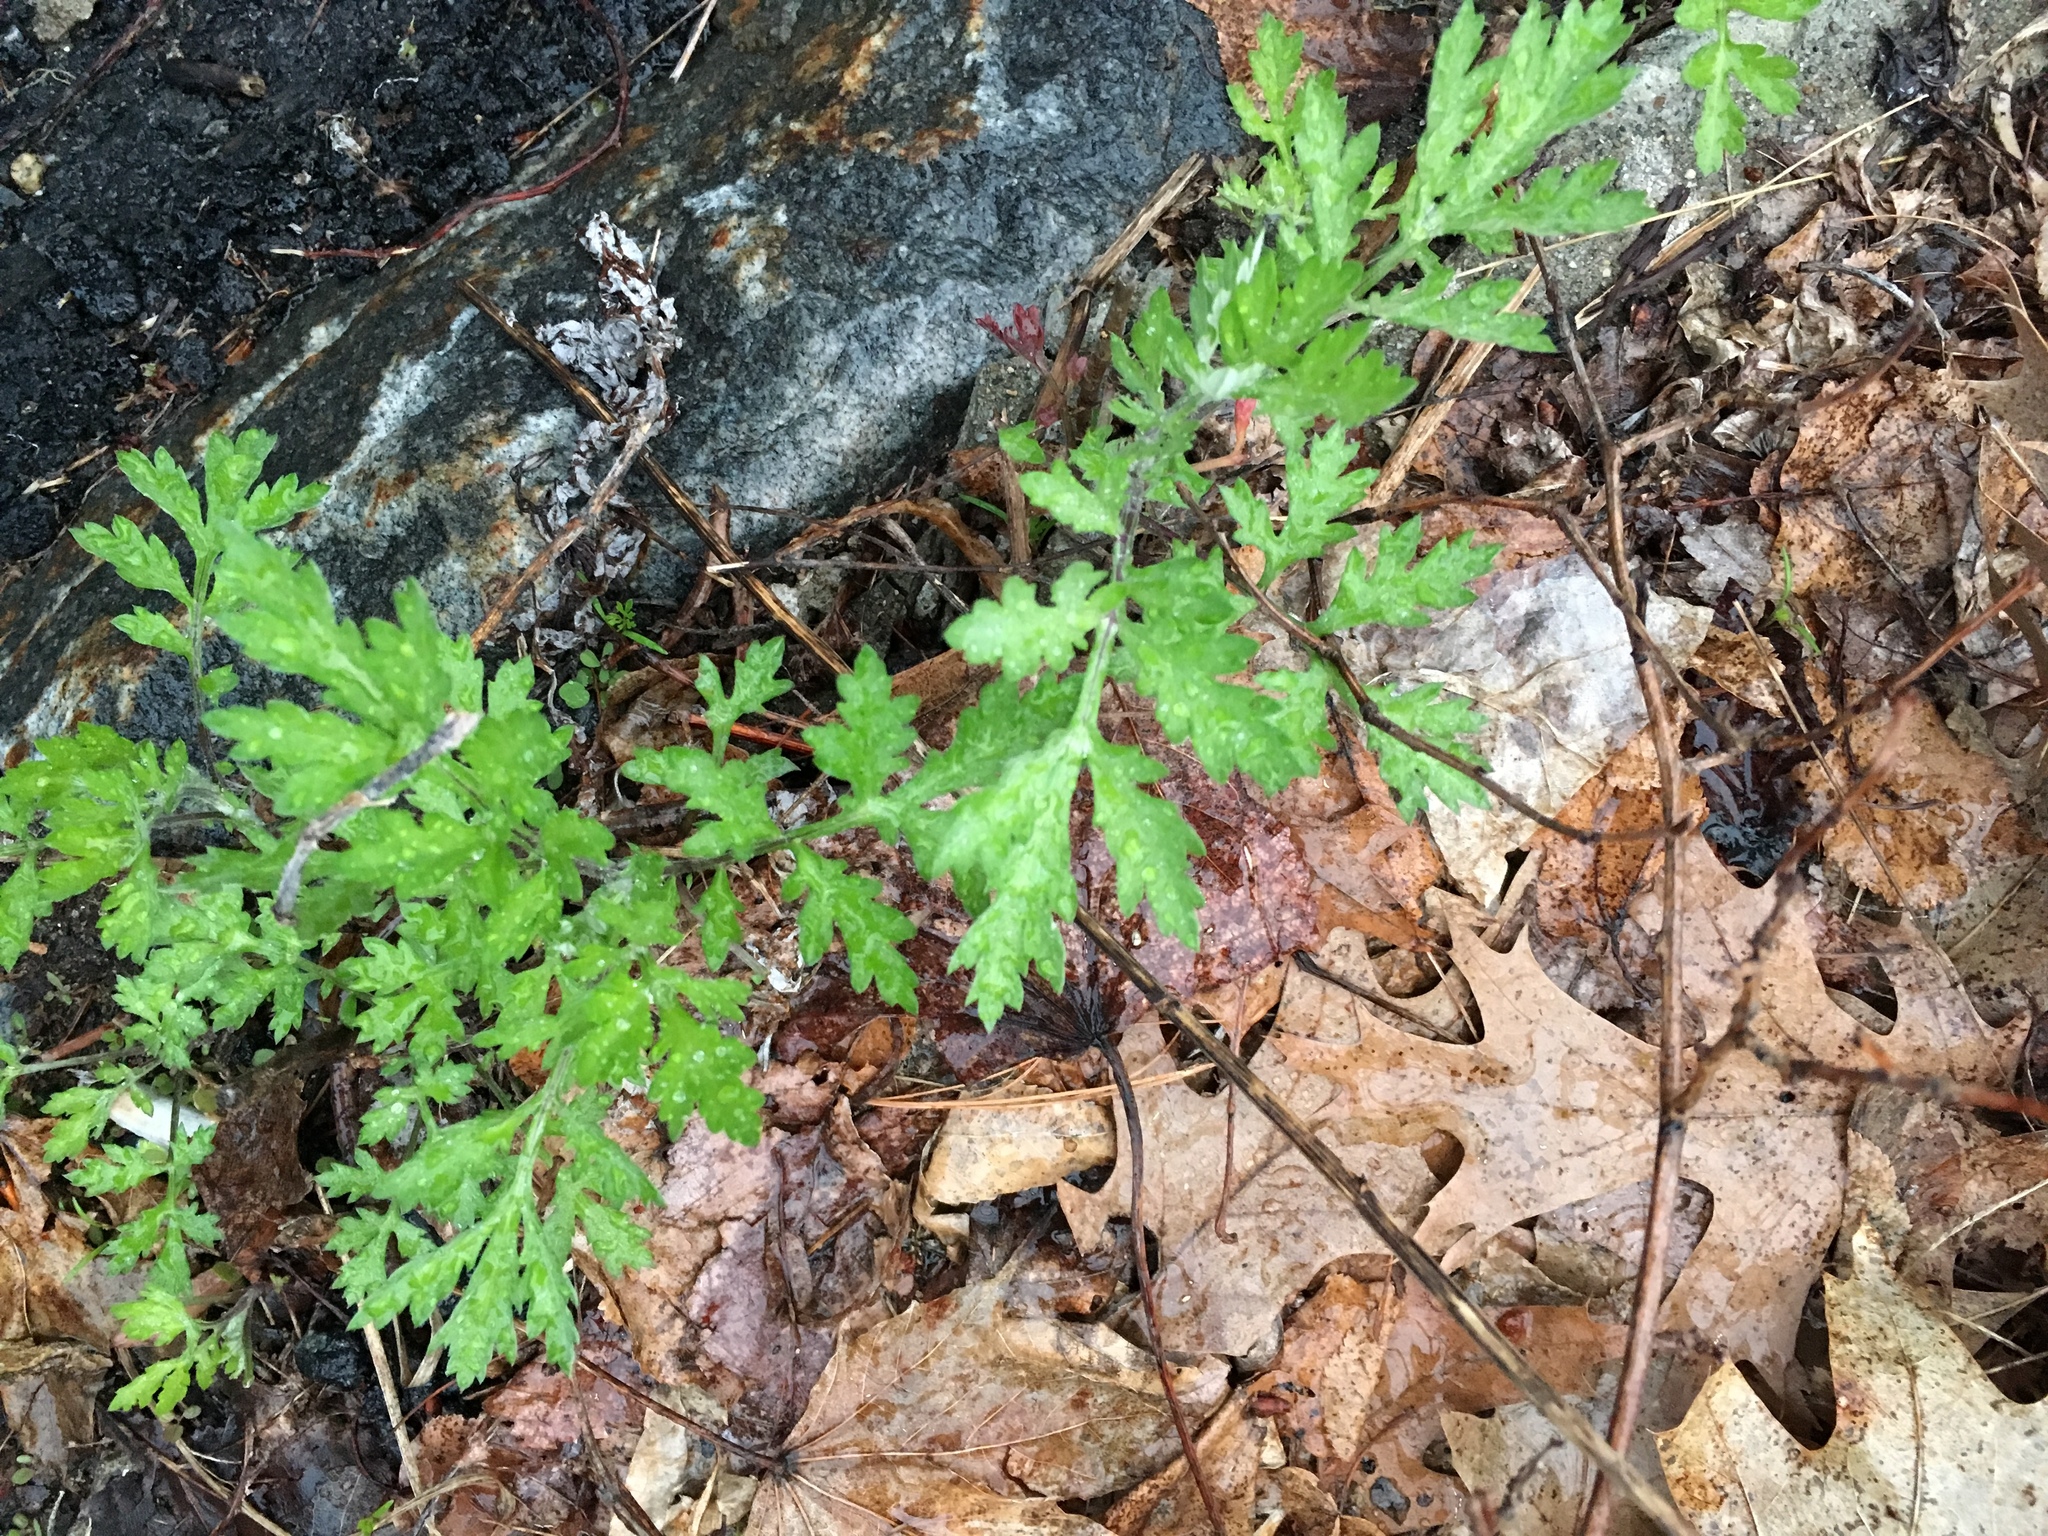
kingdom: Plantae
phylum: Tracheophyta
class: Magnoliopsida
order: Asterales
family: Asteraceae
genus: Artemisia
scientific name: Artemisia vulgaris
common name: Mugwort
